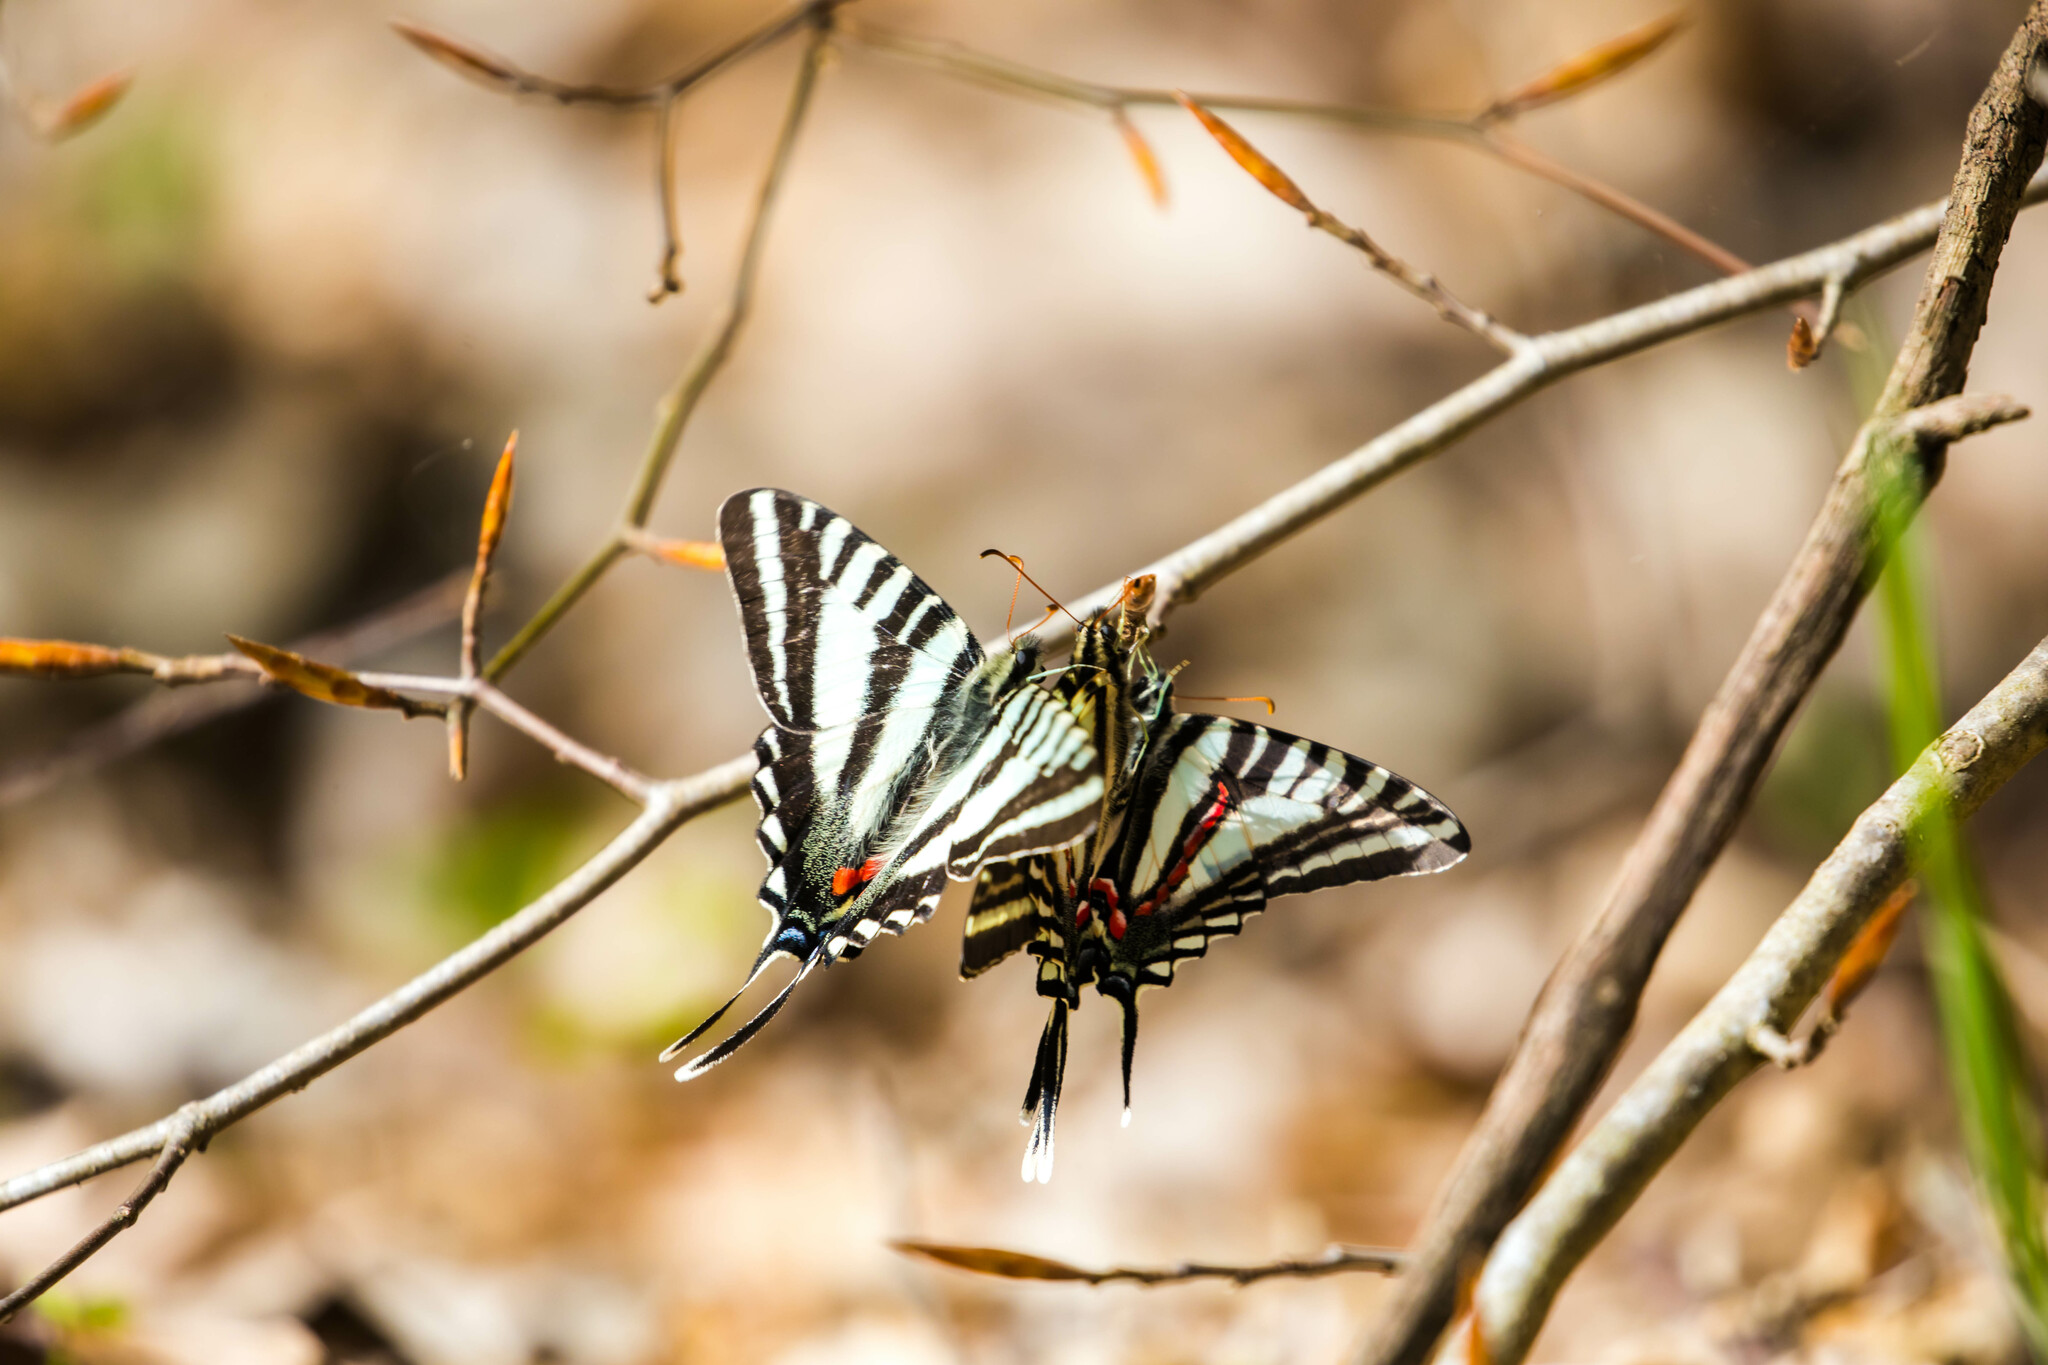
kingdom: Animalia
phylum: Arthropoda
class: Insecta
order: Lepidoptera
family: Papilionidae
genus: Protographium
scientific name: Protographium marcellus
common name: Zebra swallowtail
